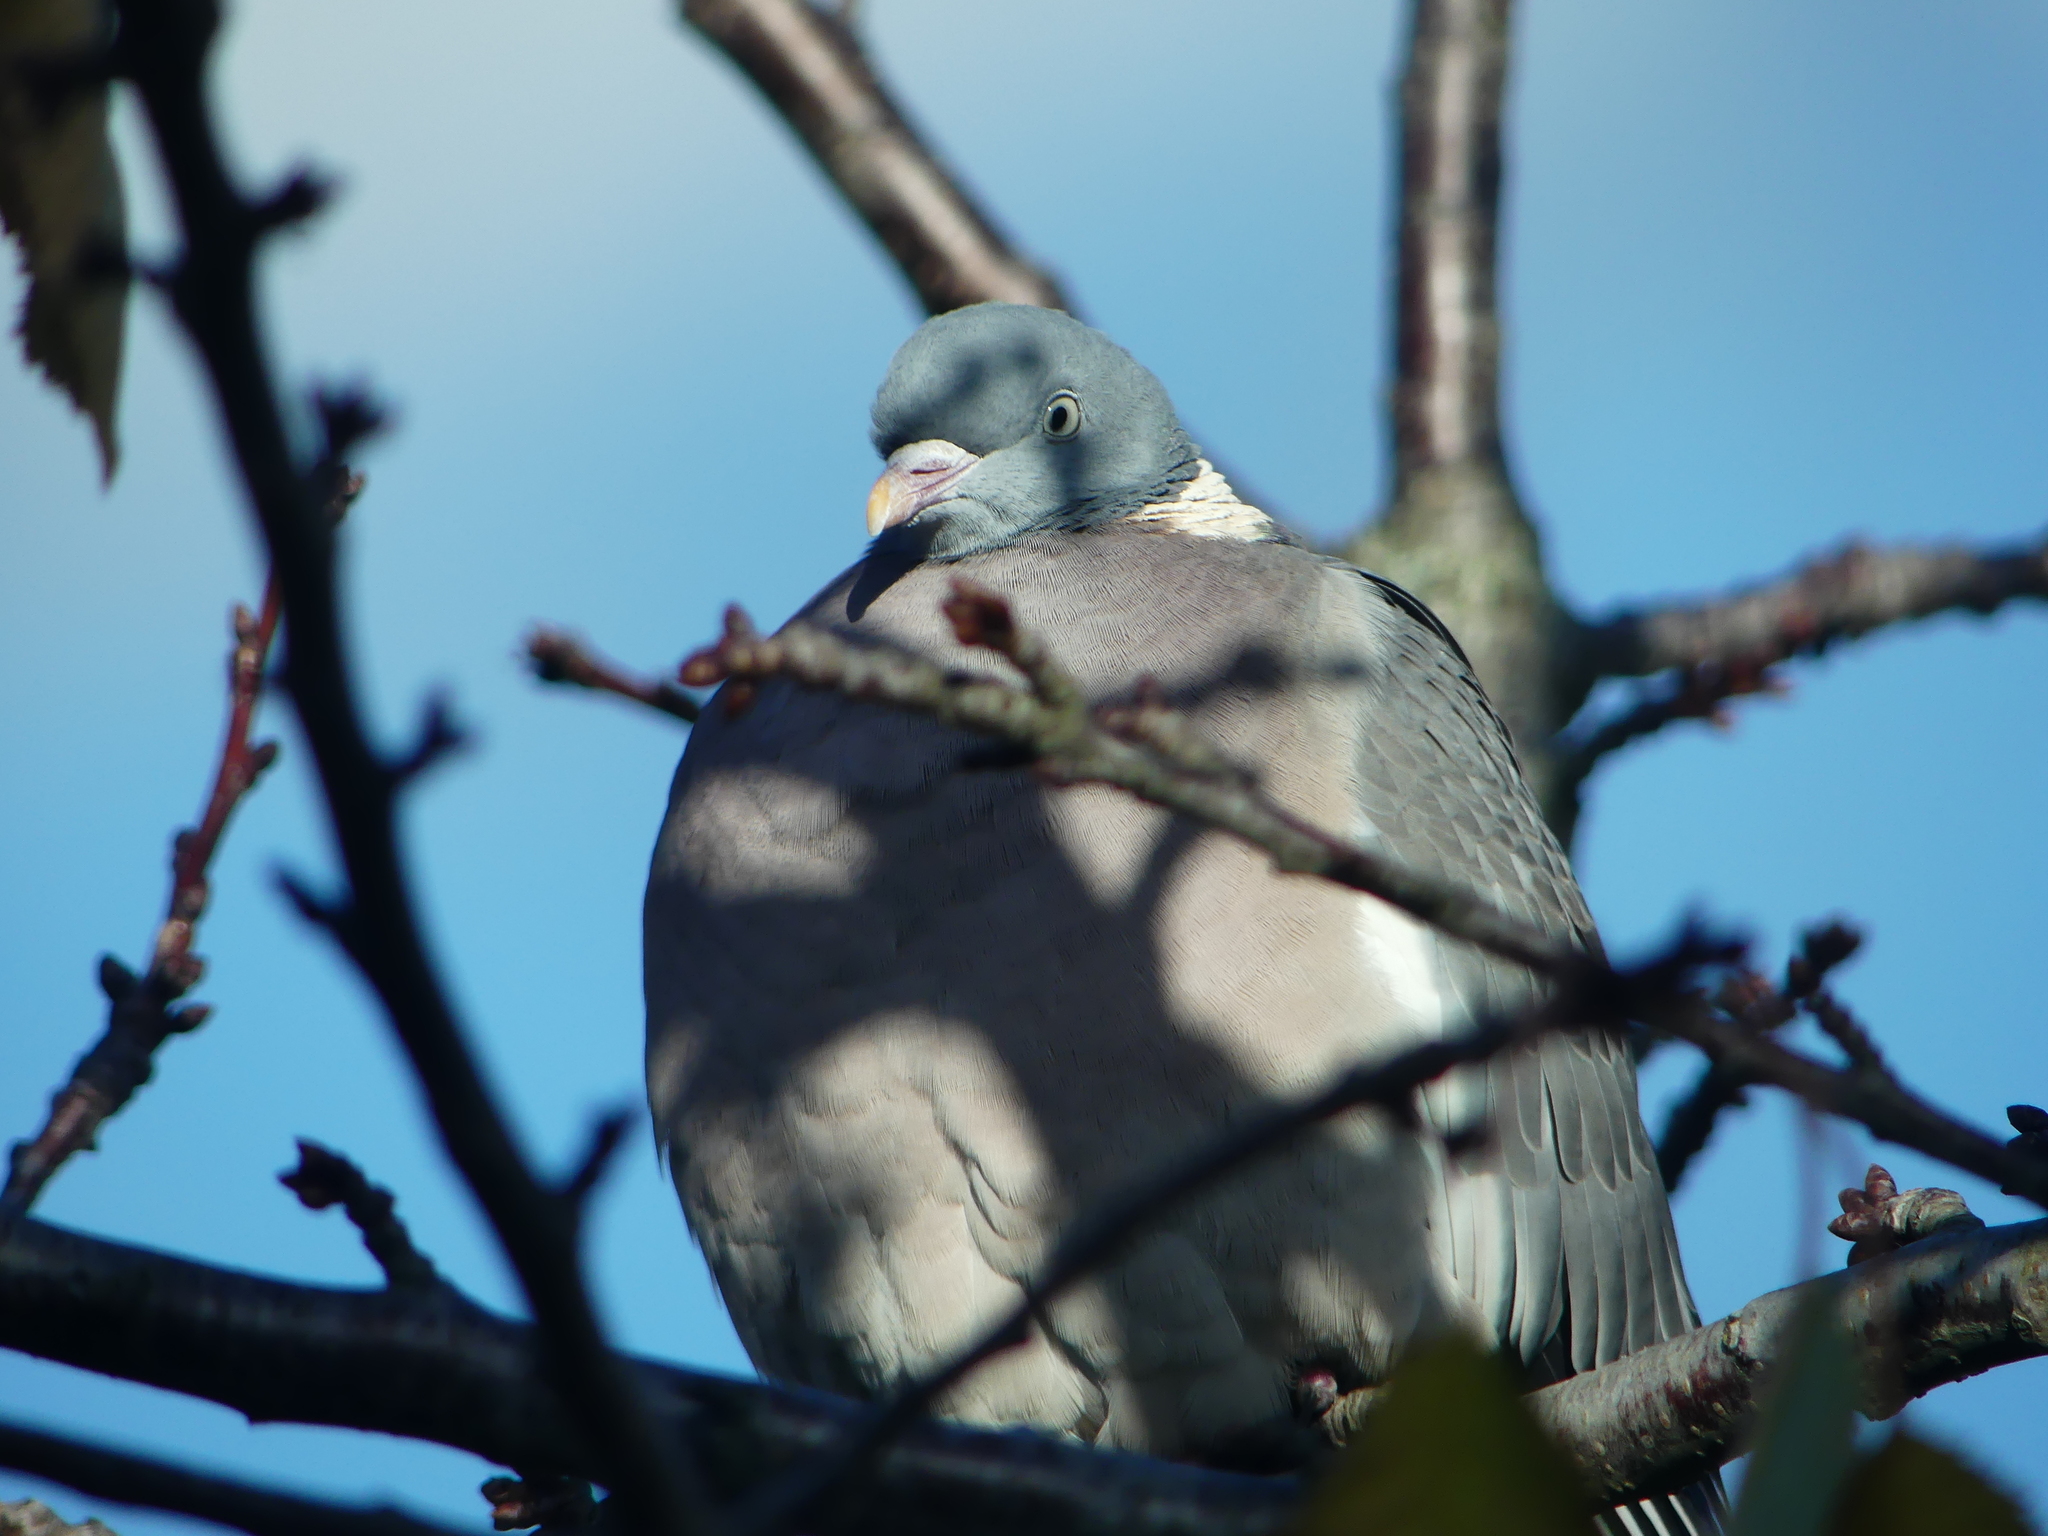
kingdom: Animalia
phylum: Chordata
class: Aves
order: Columbiformes
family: Columbidae
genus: Columba
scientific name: Columba palumbus
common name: Common wood pigeon
